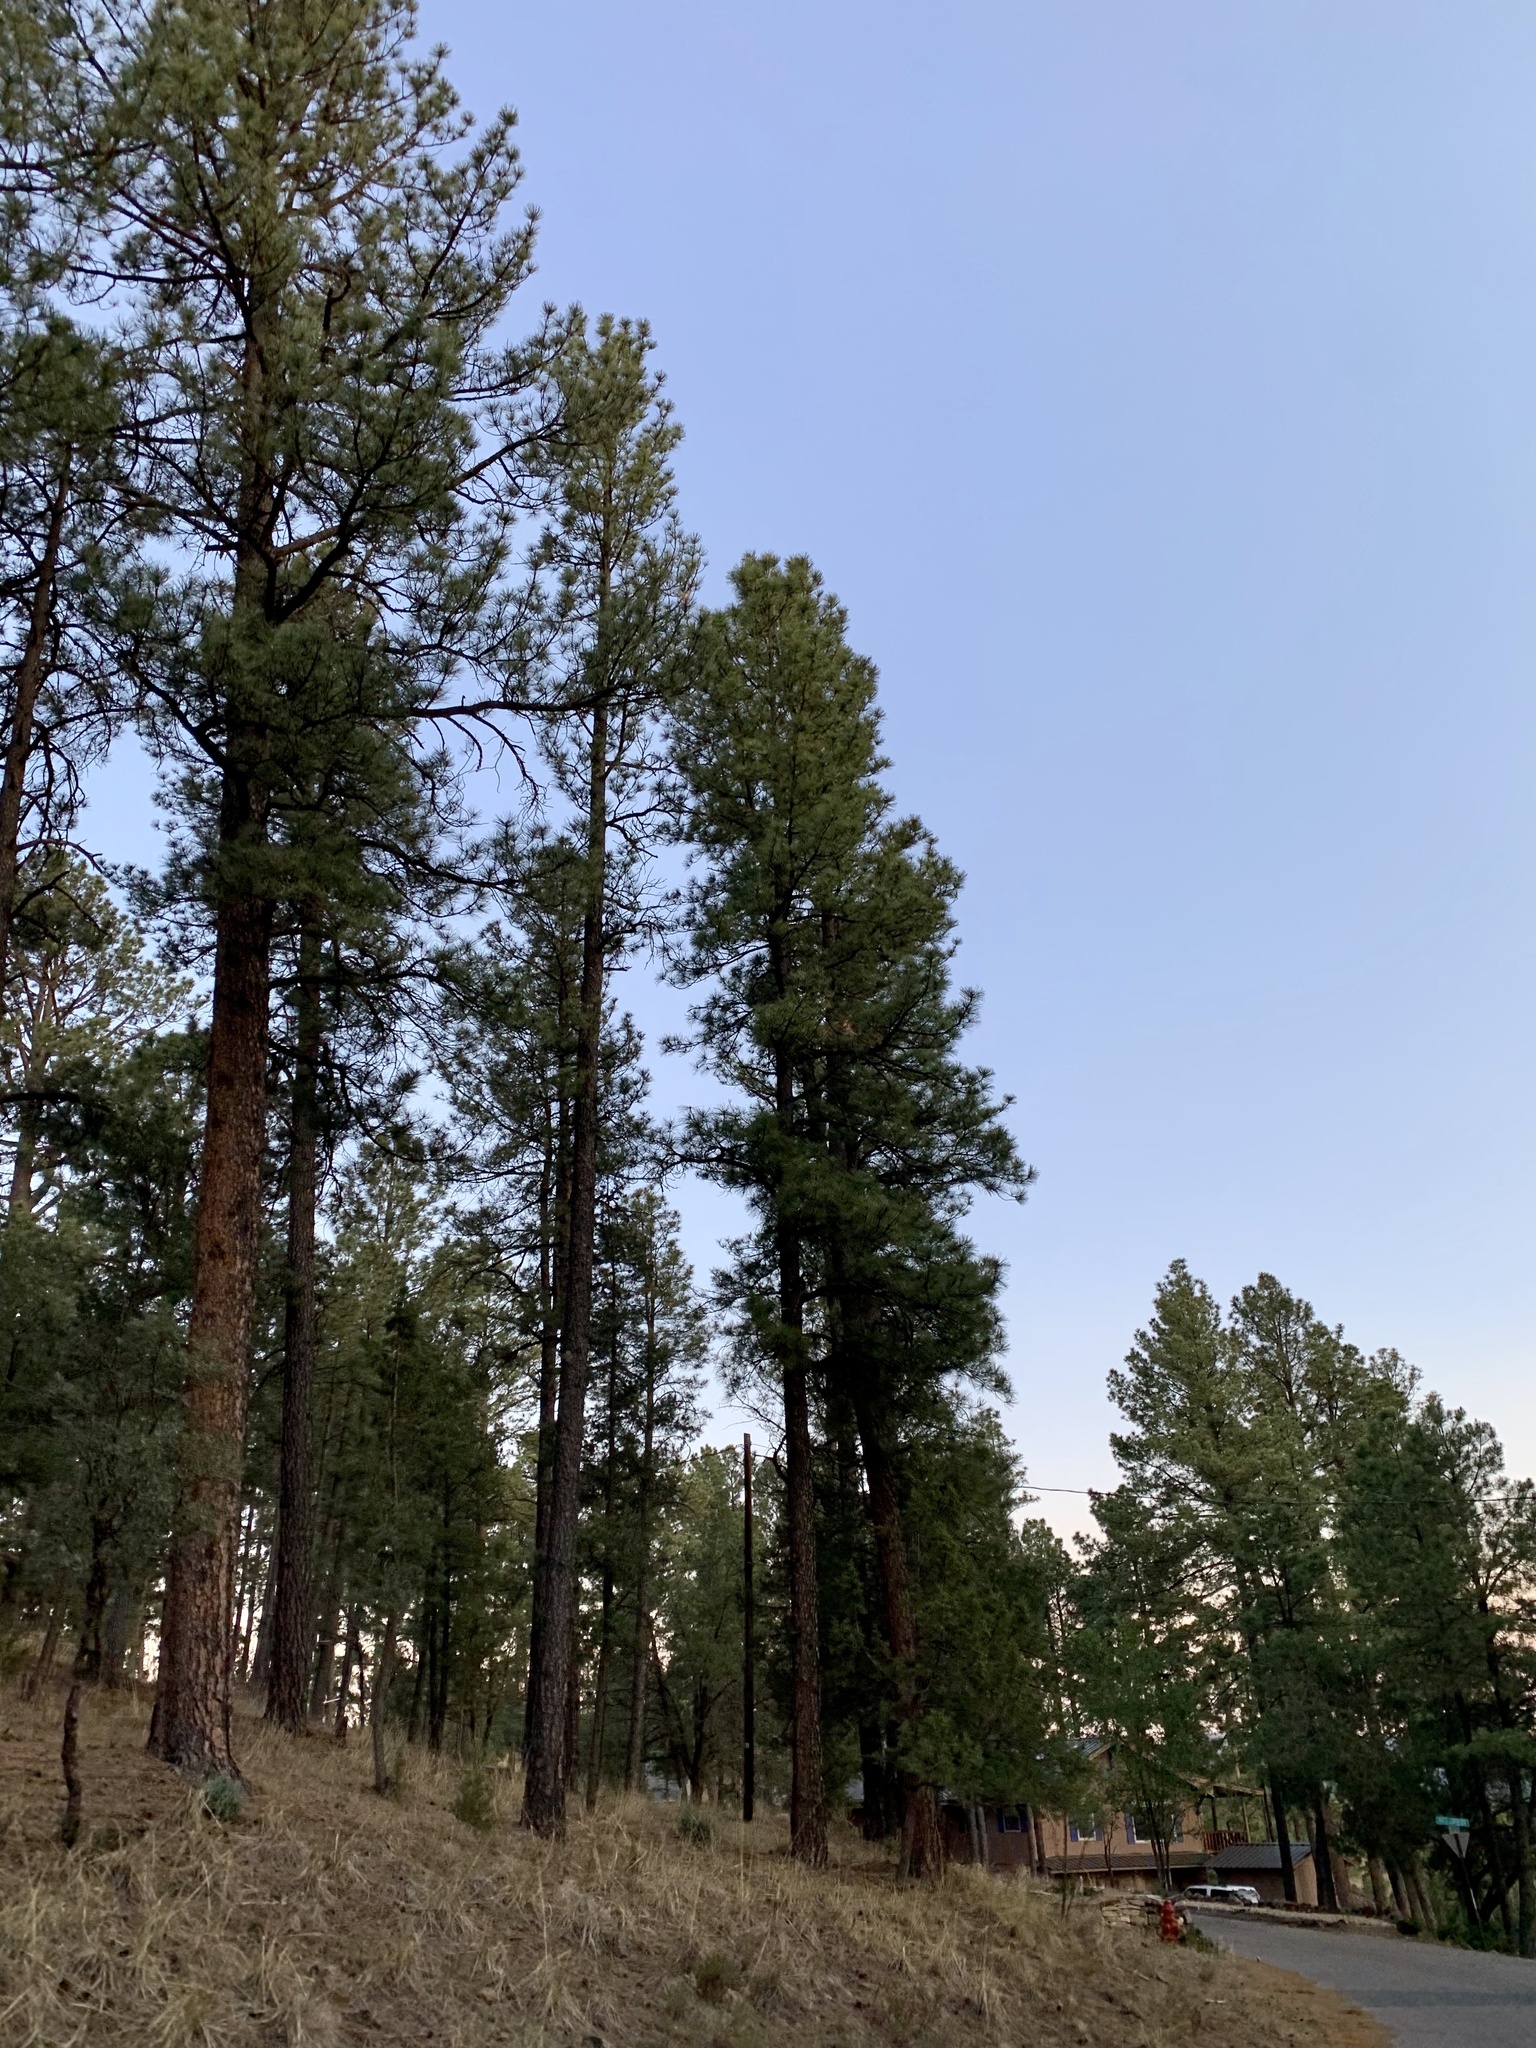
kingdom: Plantae
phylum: Tracheophyta
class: Pinopsida
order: Pinales
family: Pinaceae
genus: Pinus
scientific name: Pinus ponderosa
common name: Western yellow-pine
